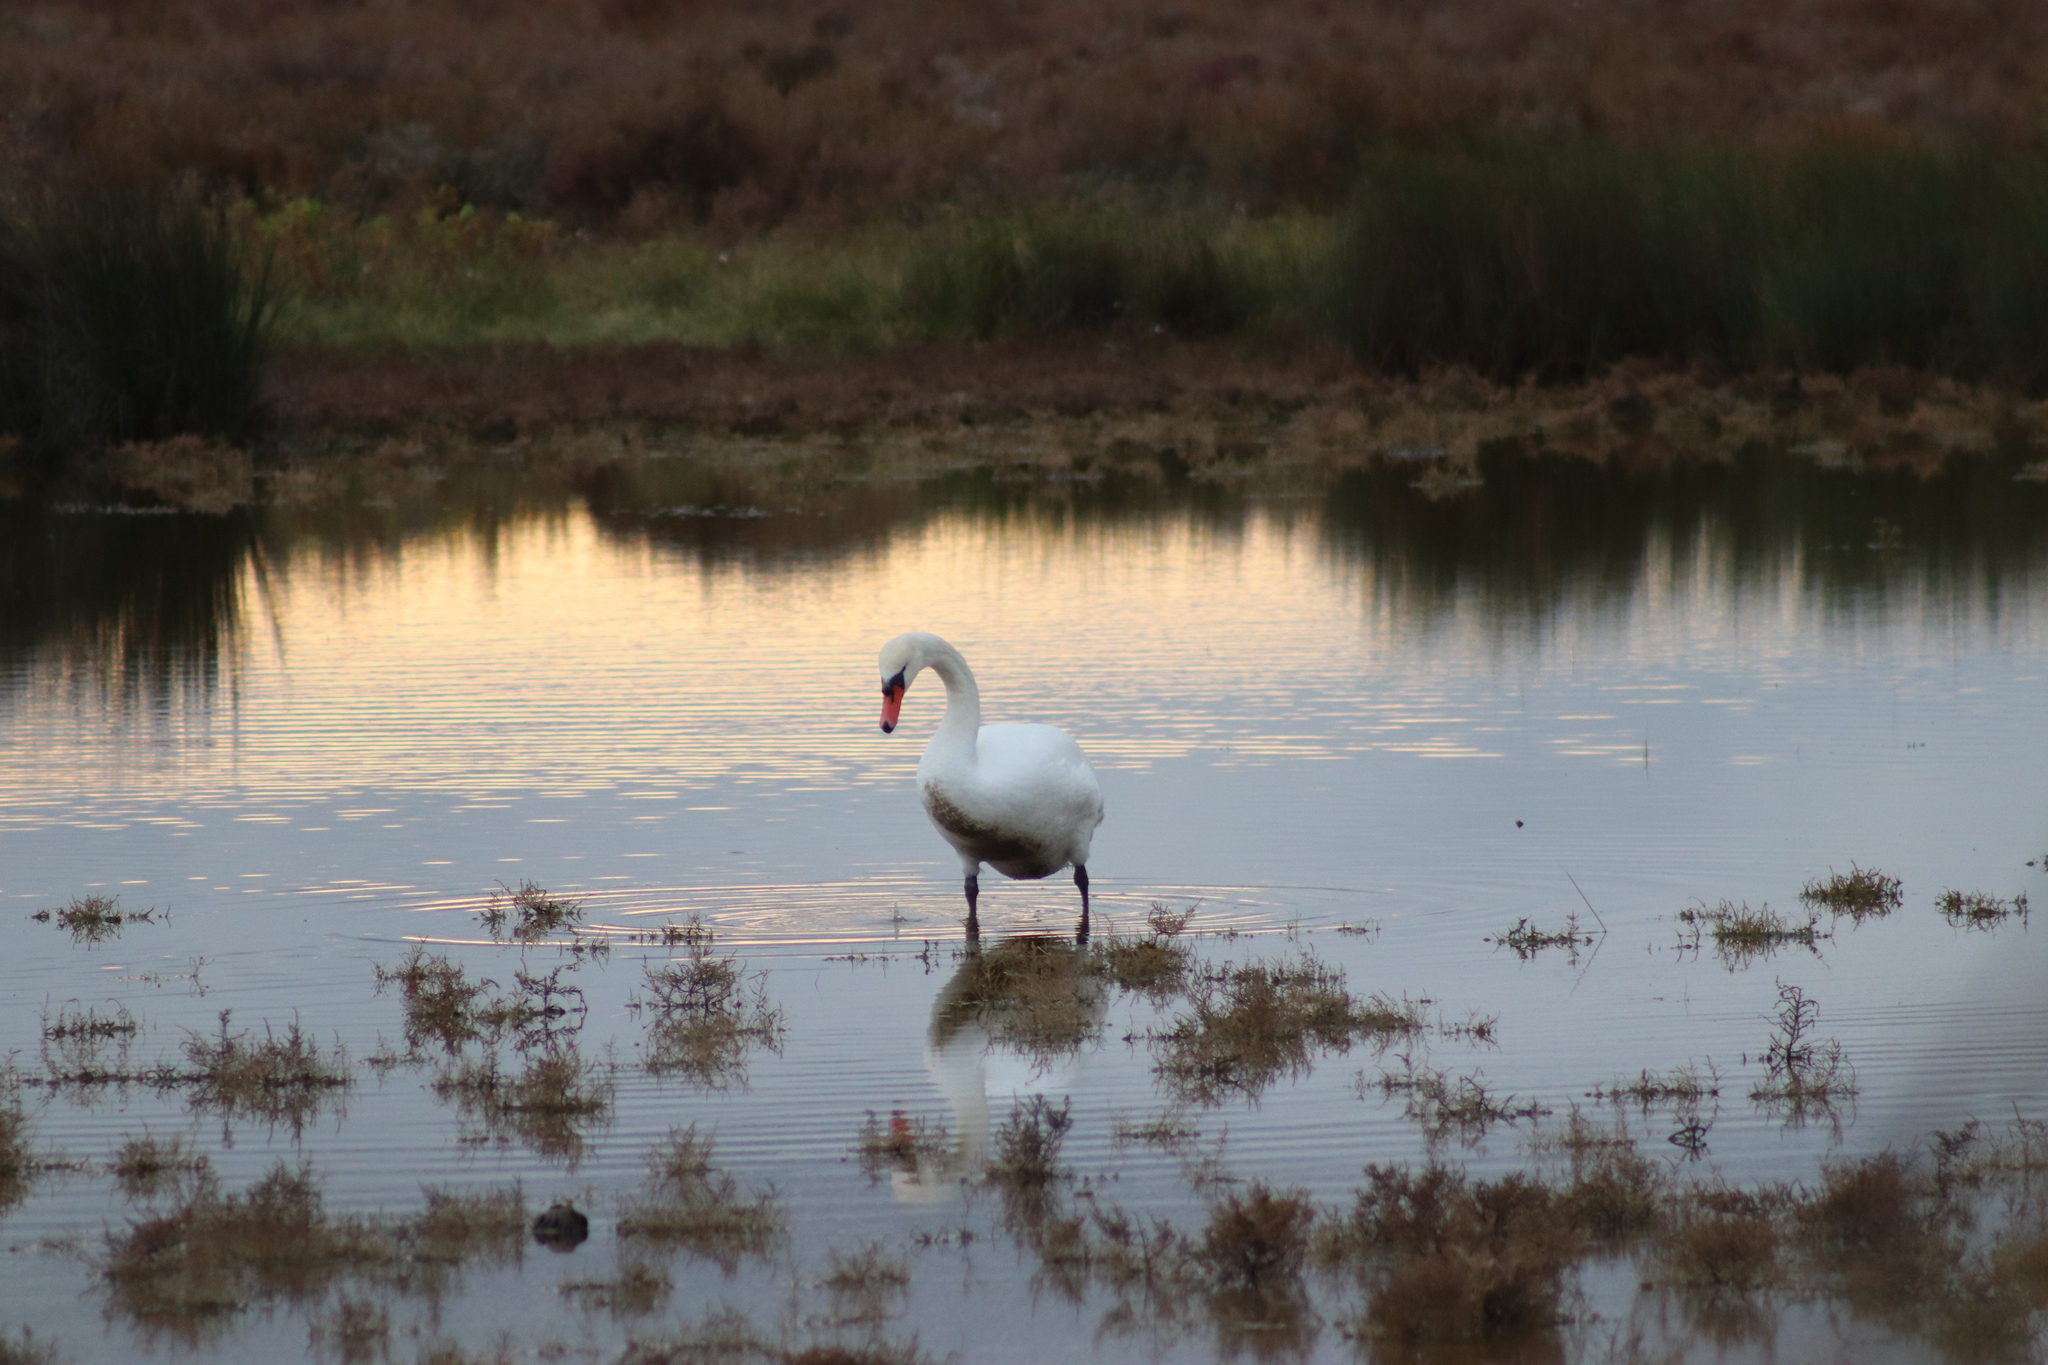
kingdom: Animalia
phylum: Chordata
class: Aves
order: Anseriformes
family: Anatidae
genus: Cygnus
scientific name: Cygnus olor
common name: Mute swan
